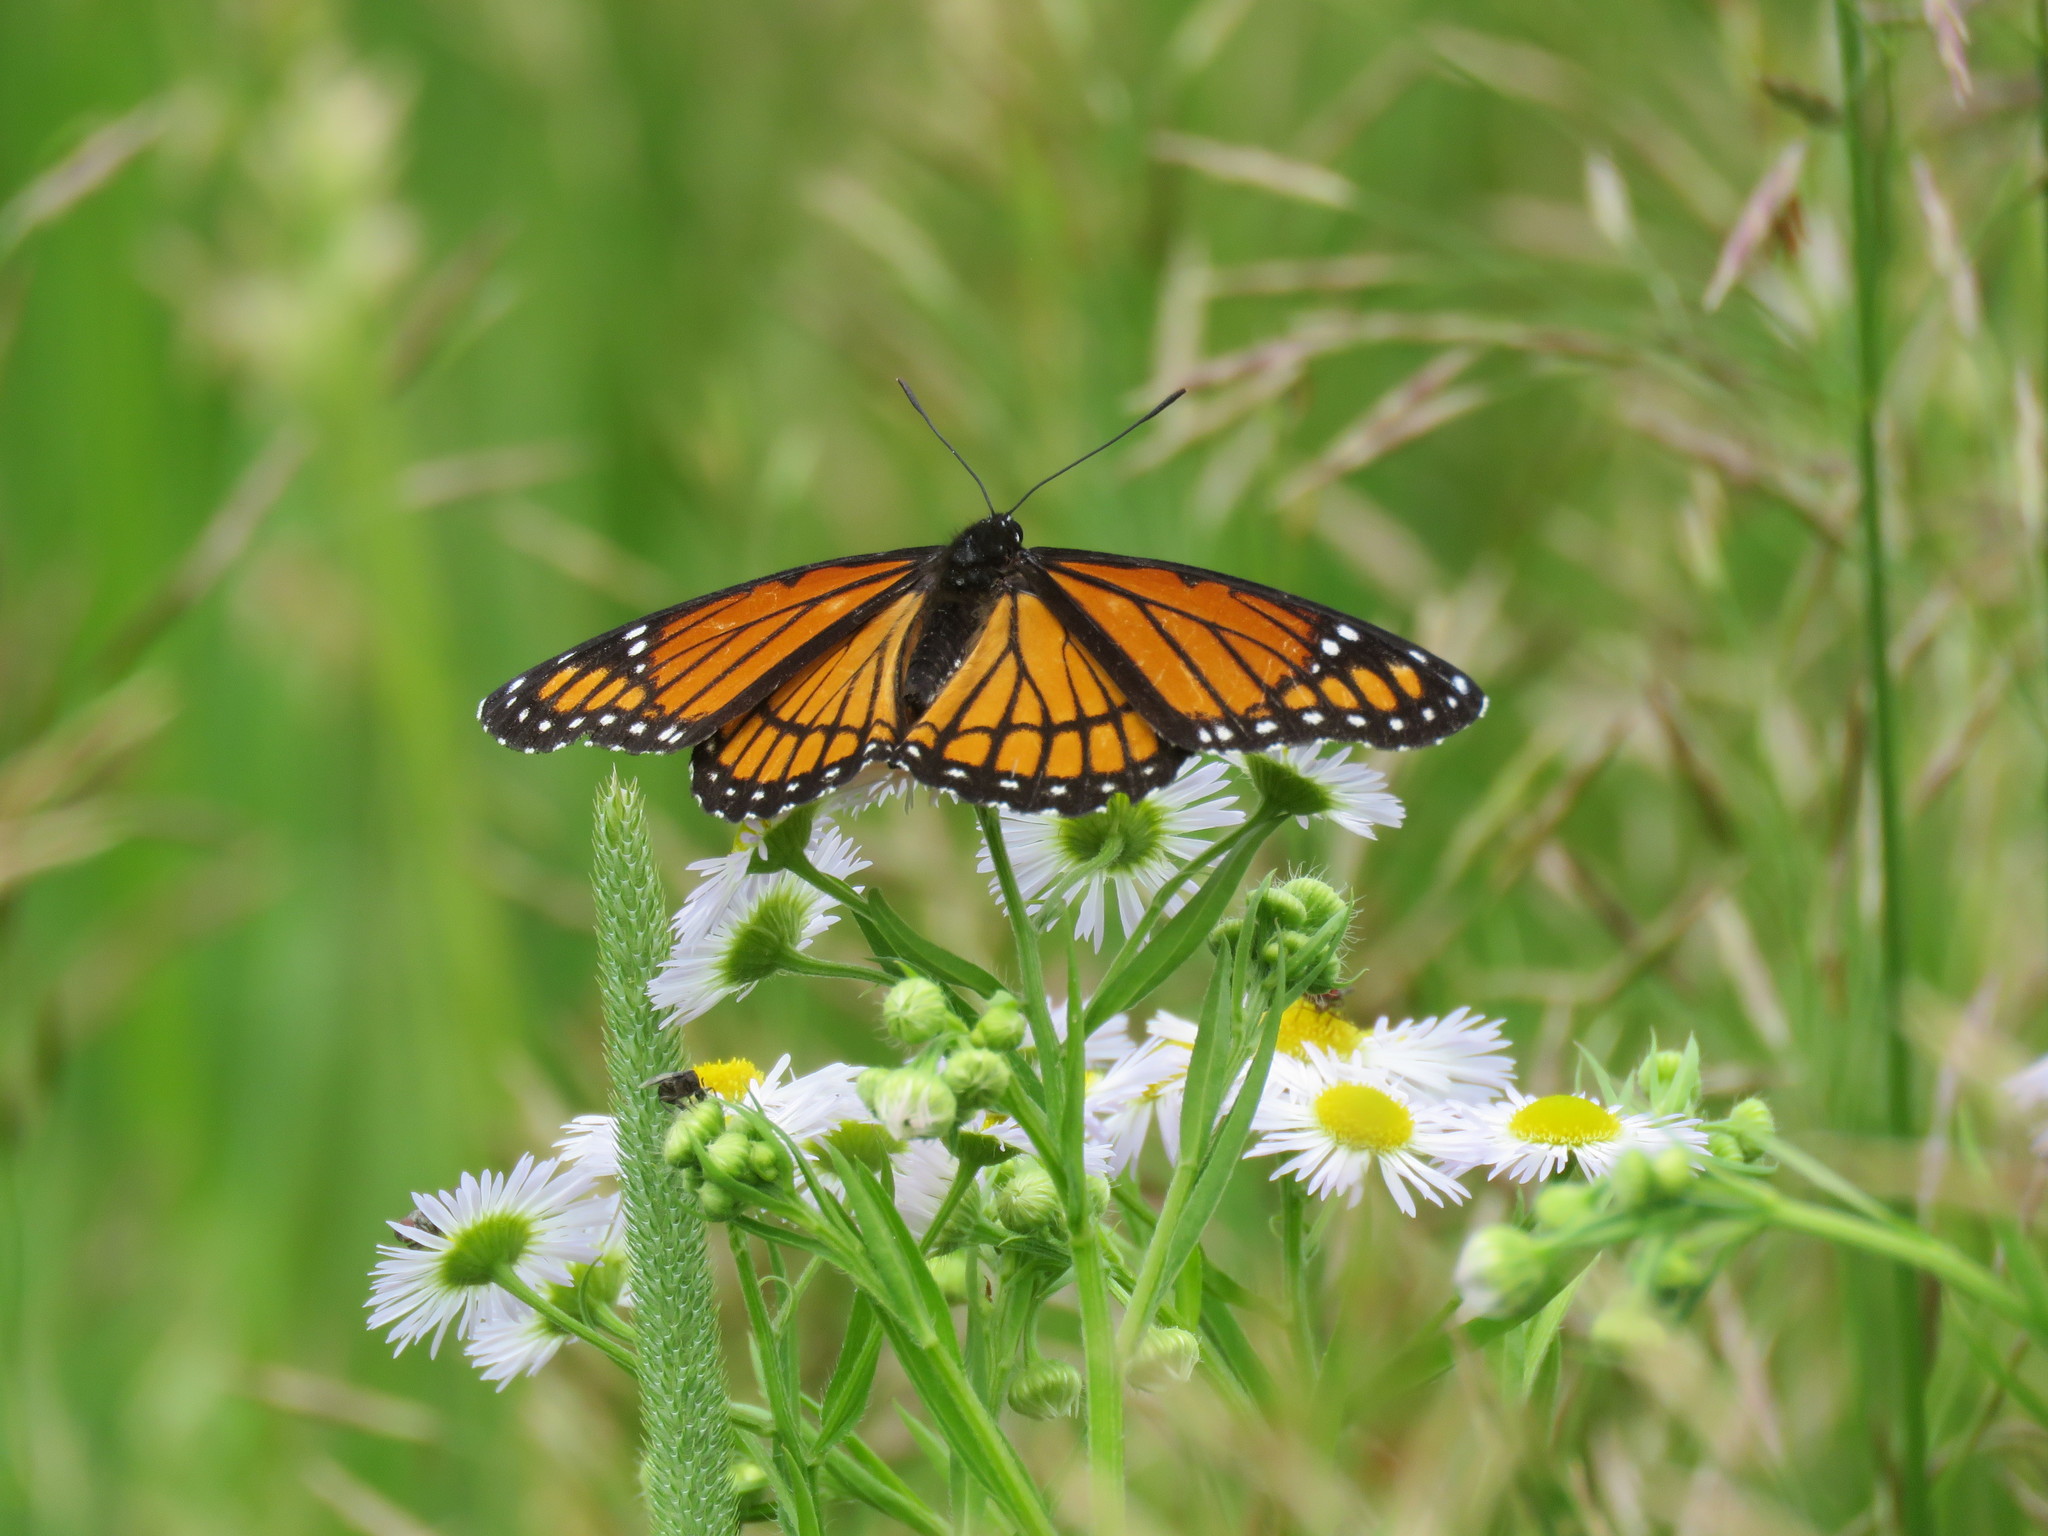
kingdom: Animalia
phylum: Arthropoda
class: Insecta
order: Lepidoptera
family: Nymphalidae
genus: Limenitis
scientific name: Limenitis archippus
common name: Viceroy
